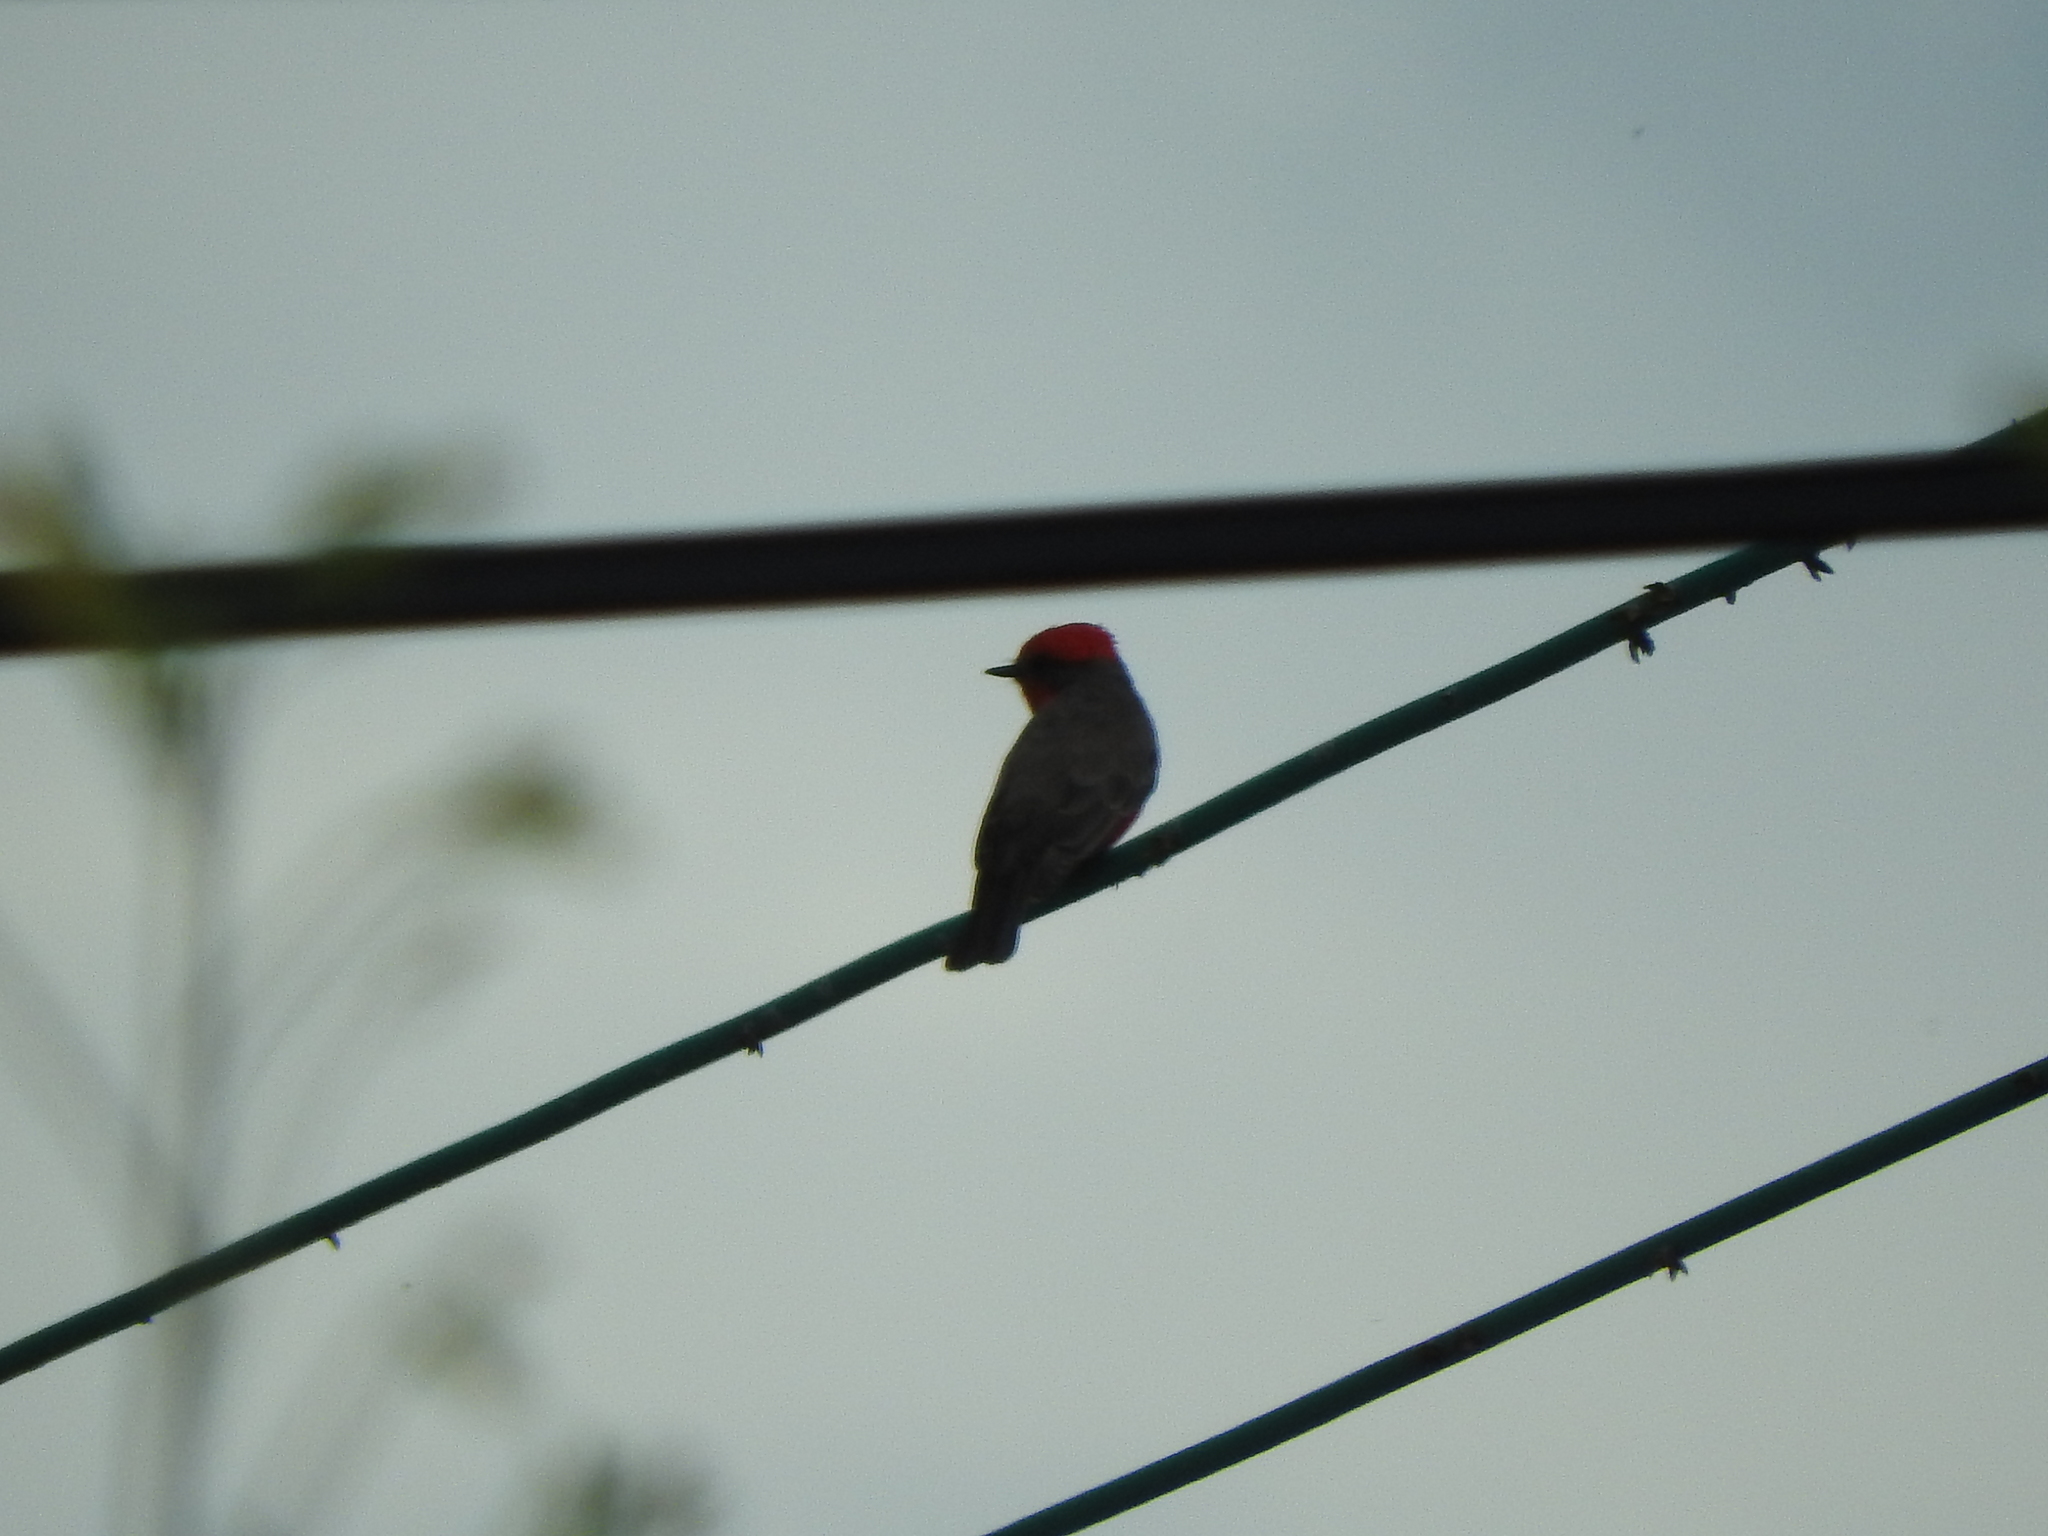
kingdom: Animalia
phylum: Chordata
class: Aves
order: Passeriformes
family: Tyrannidae
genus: Pyrocephalus
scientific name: Pyrocephalus rubinus
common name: Vermilion flycatcher
